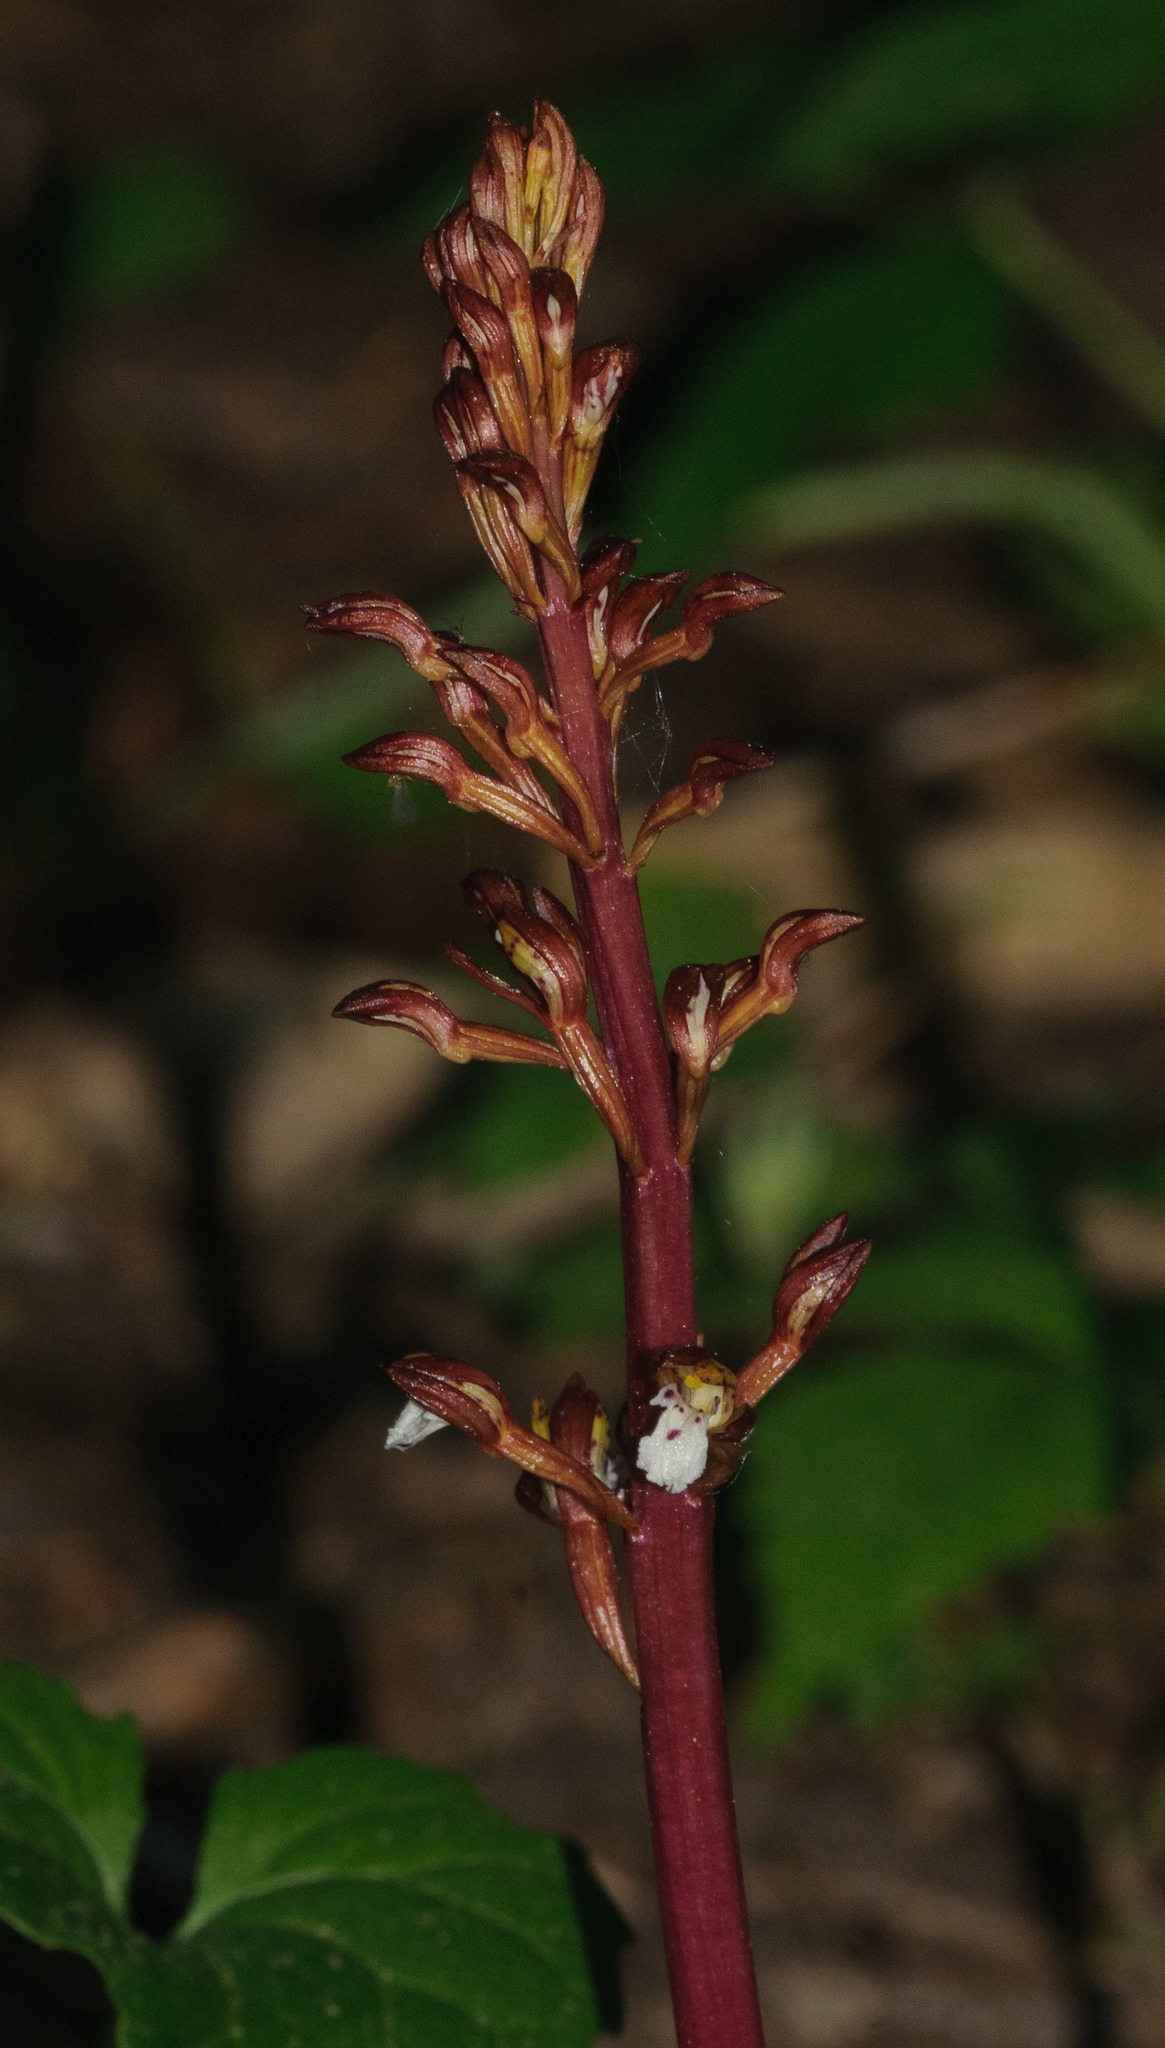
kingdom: Plantae
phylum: Tracheophyta
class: Liliopsida
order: Asparagales
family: Orchidaceae
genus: Corallorhiza
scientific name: Corallorhiza maculata
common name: Spotted coralroot
